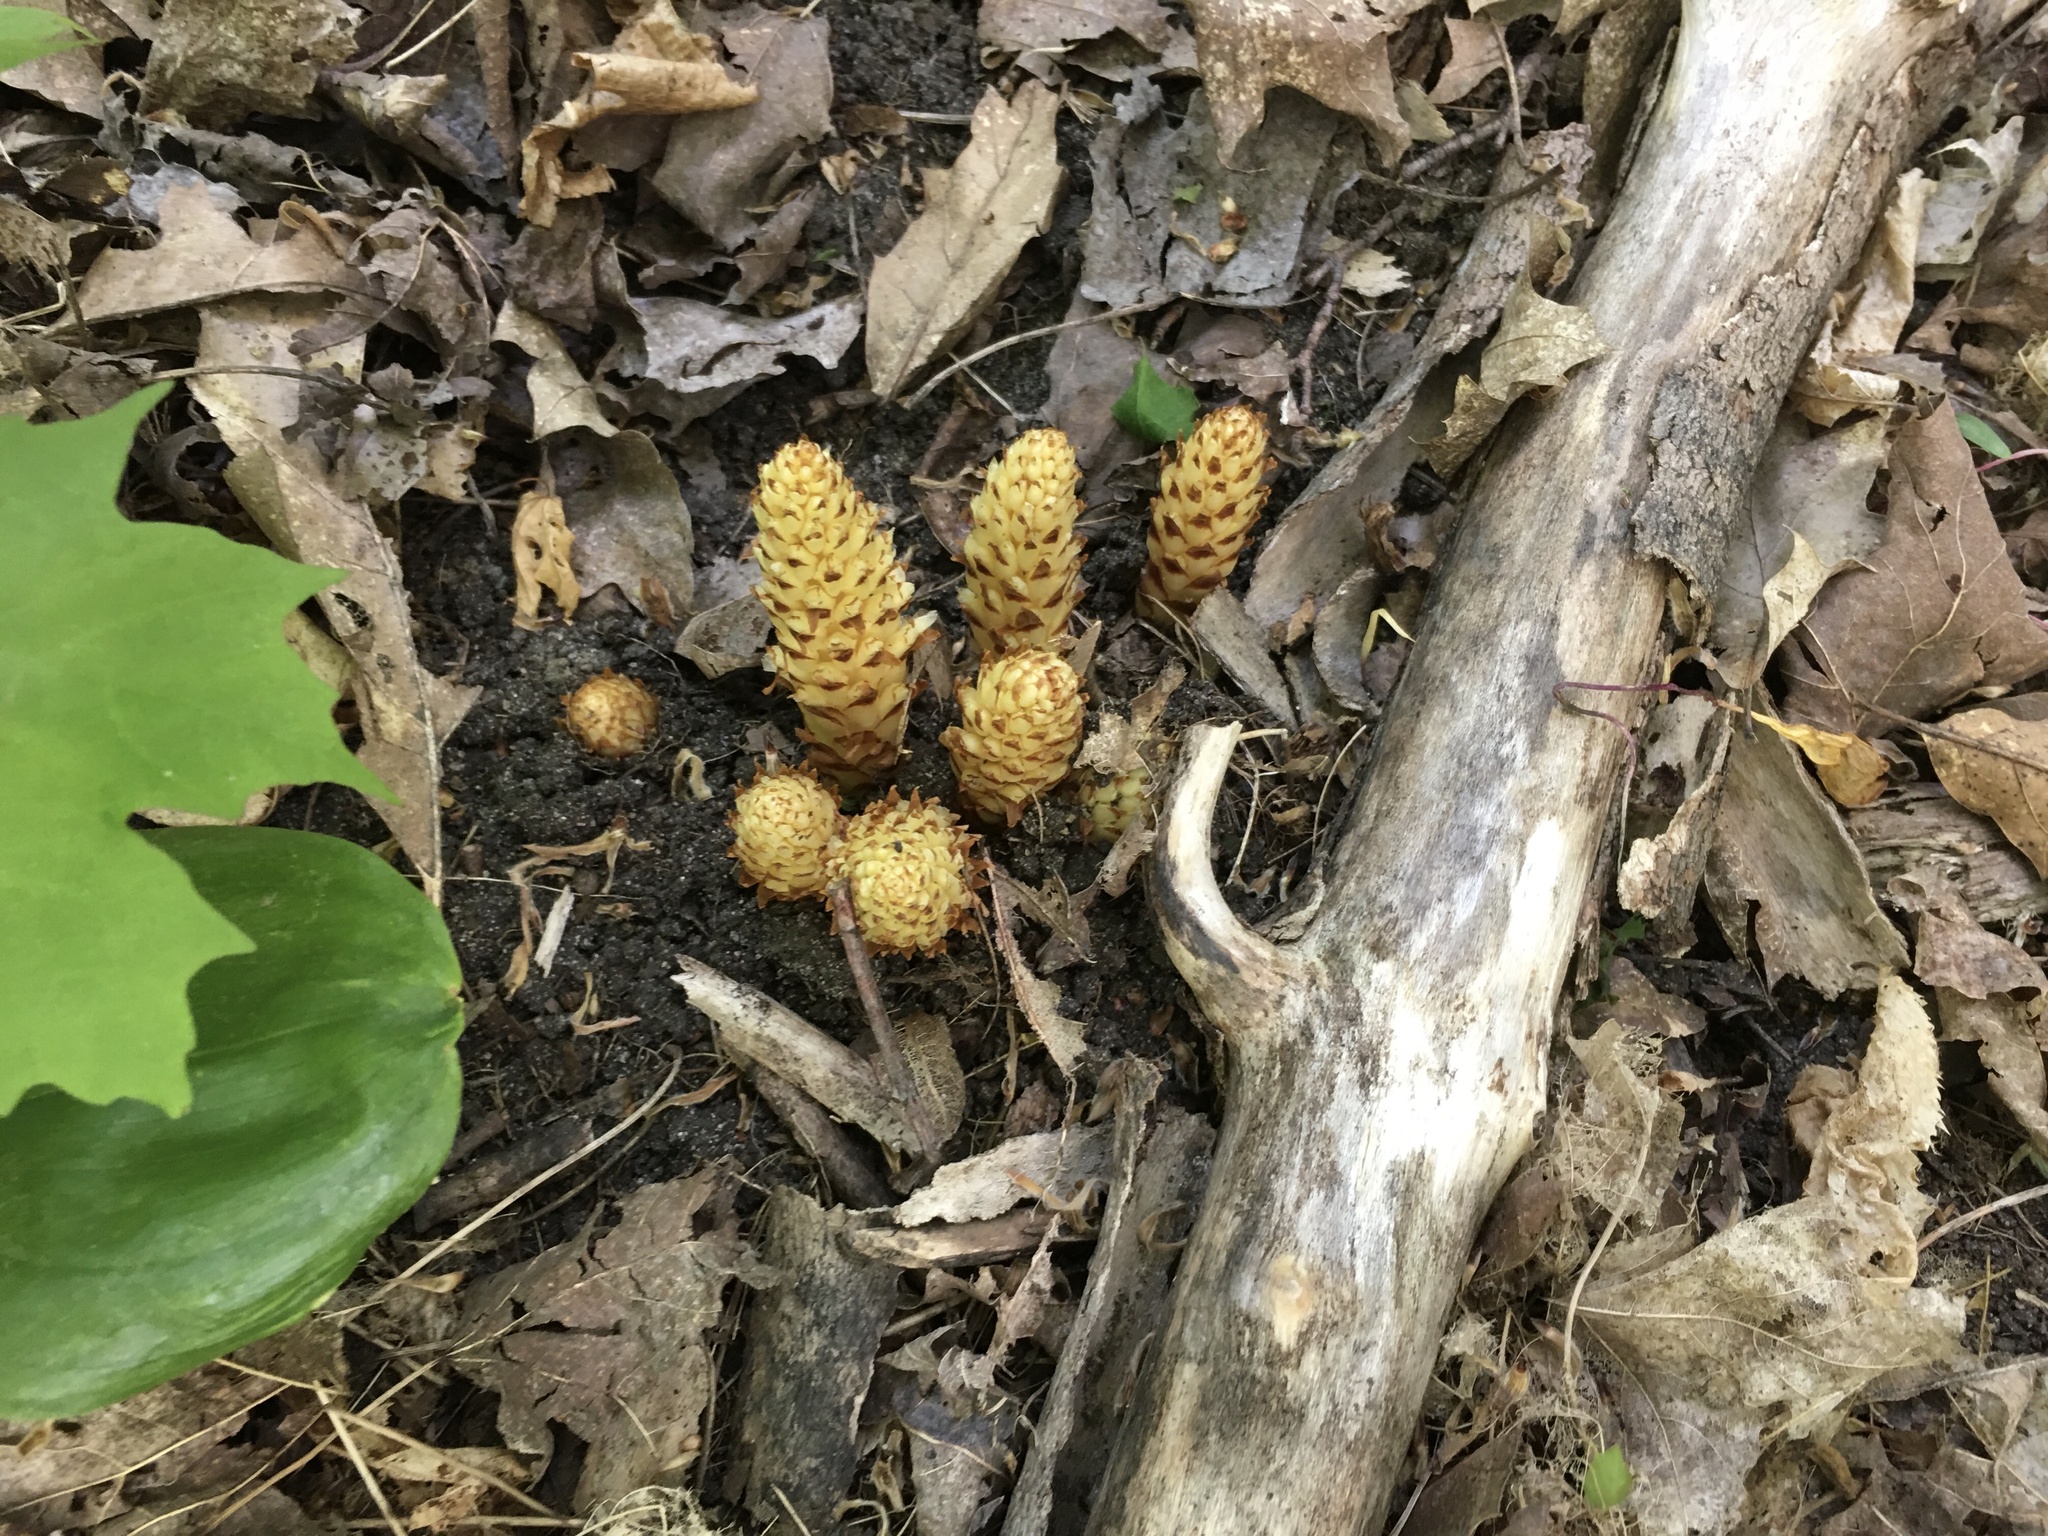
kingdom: Plantae
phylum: Tracheophyta
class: Magnoliopsida
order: Lamiales
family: Orobanchaceae
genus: Conopholis
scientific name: Conopholis americana
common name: American cancer-root
